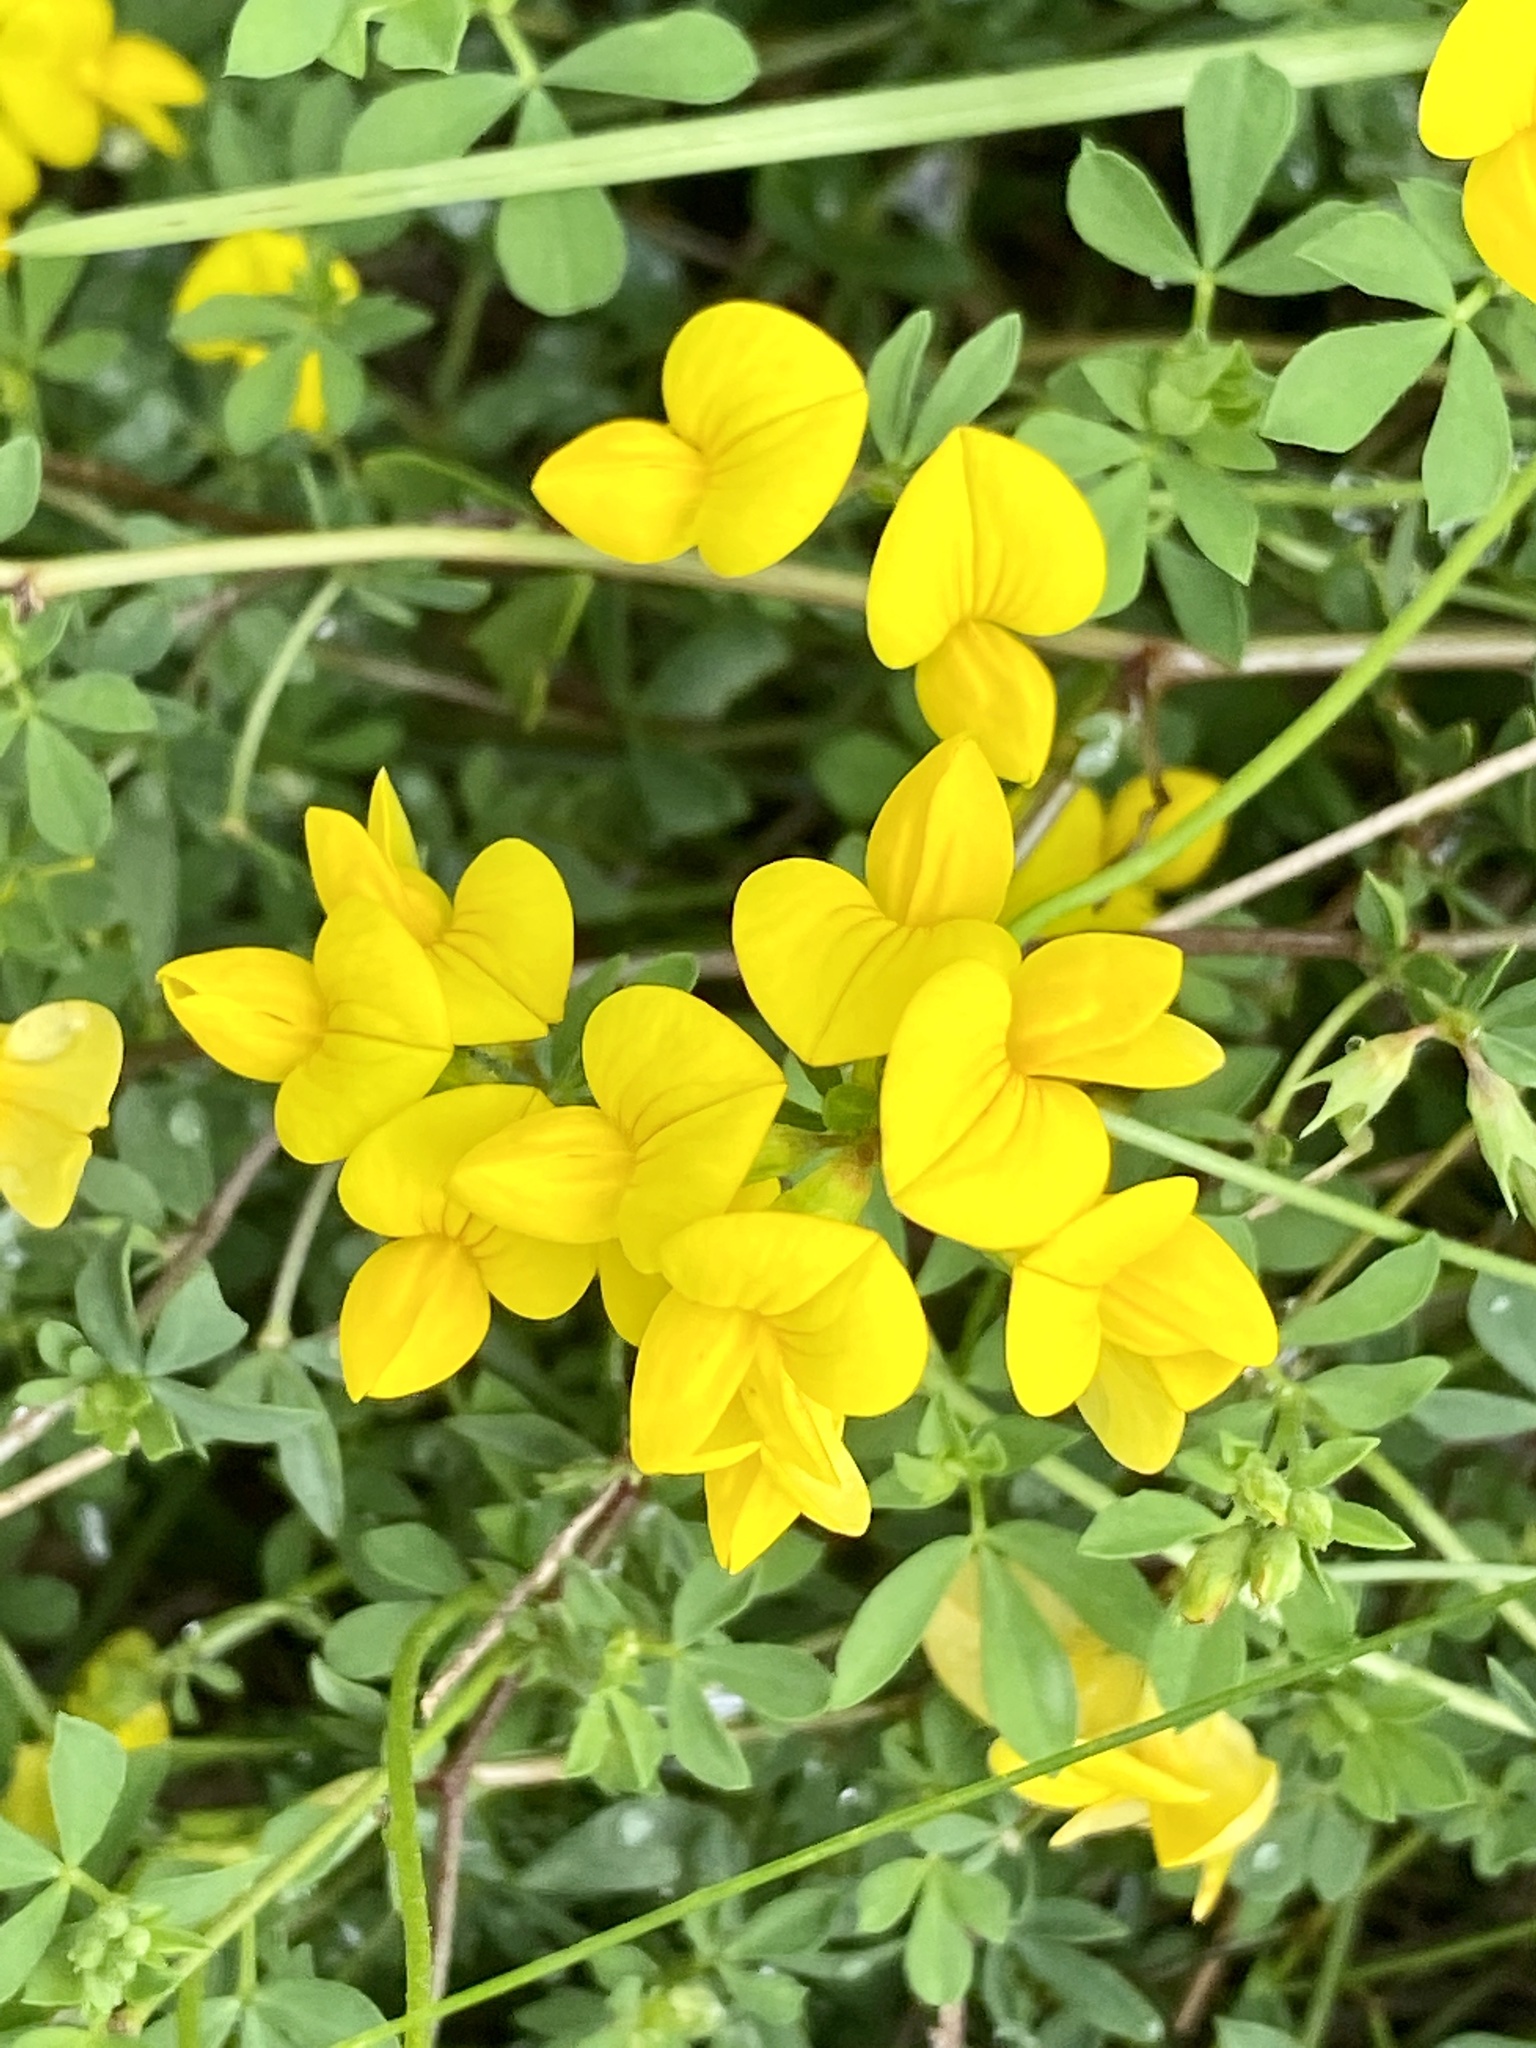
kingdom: Plantae
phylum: Tracheophyta
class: Magnoliopsida
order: Fabales
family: Fabaceae
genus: Lotus
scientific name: Lotus corniculatus
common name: Common bird's-foot-trefoil
